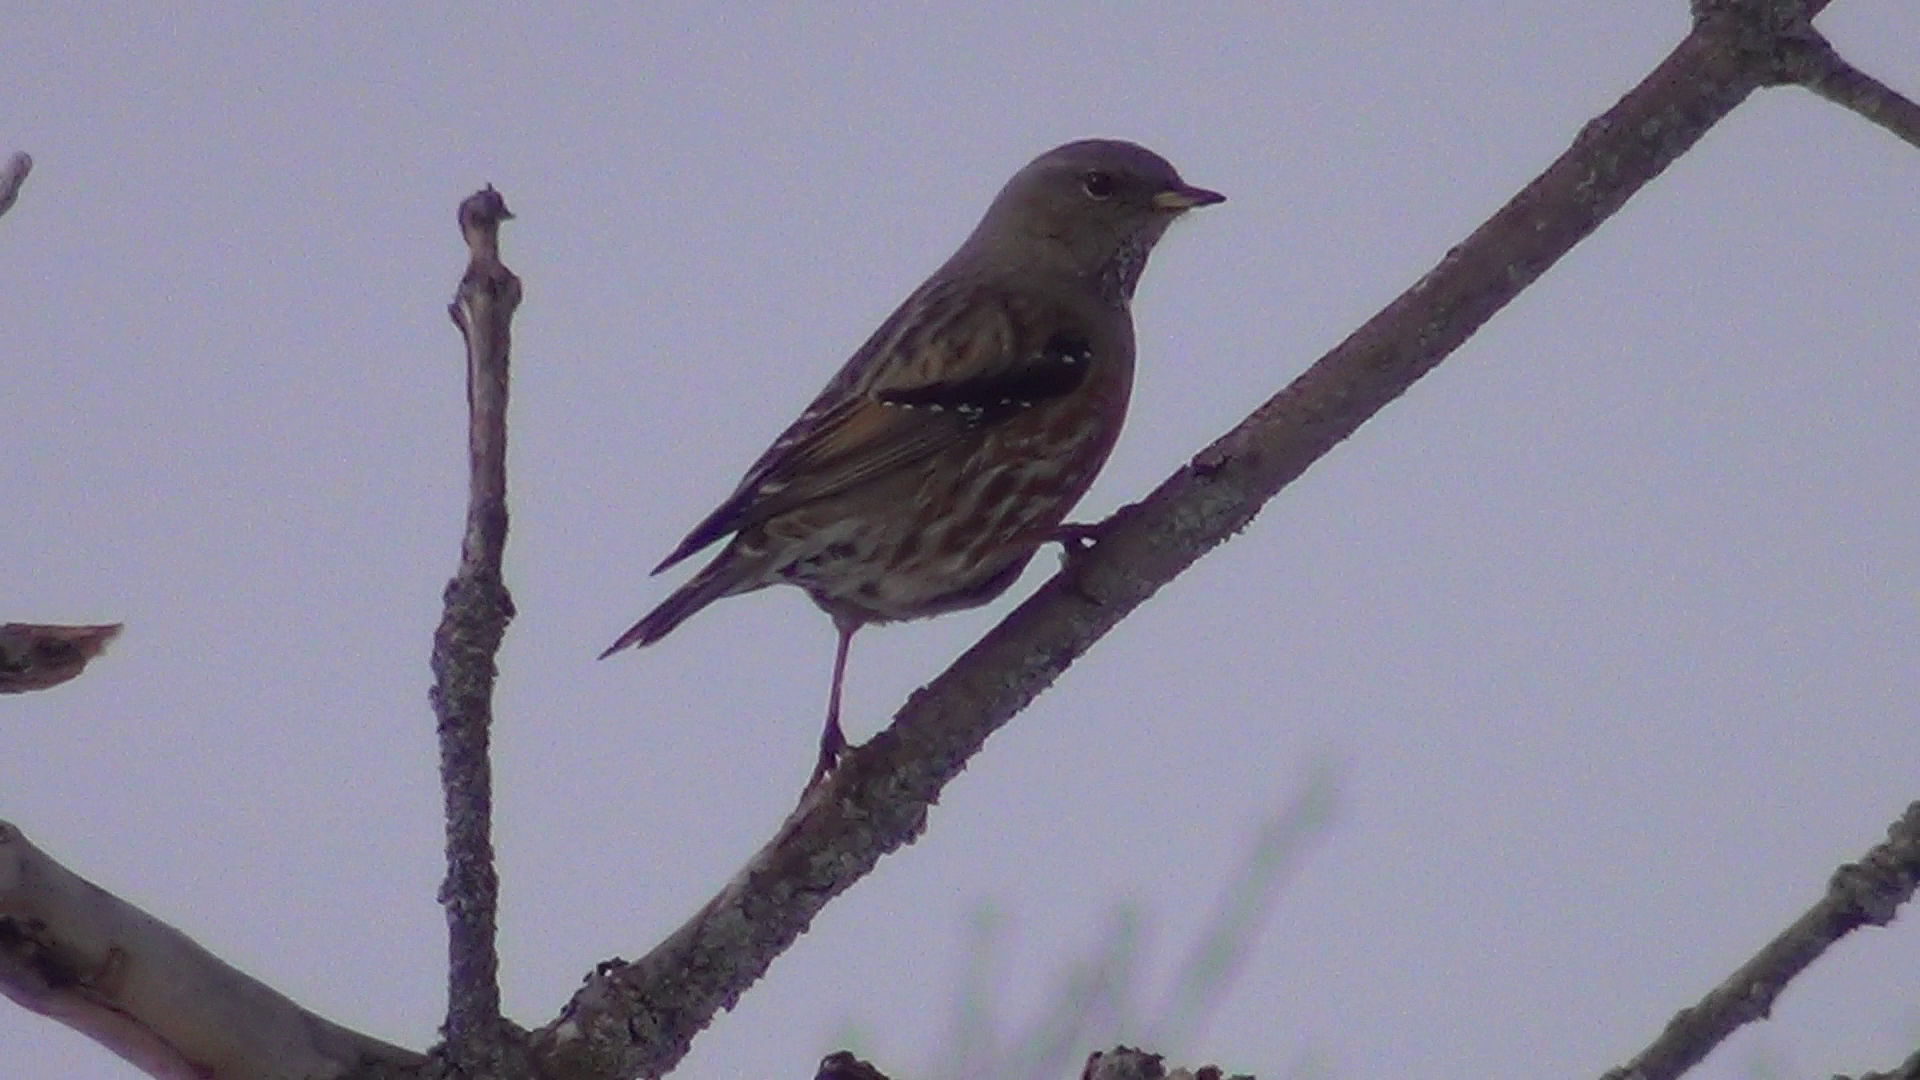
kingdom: Animalia
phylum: Chordata
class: Aves
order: Passeriformes
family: Prunellidae
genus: Prunella
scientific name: Prunella collaris
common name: Alpine accentor
